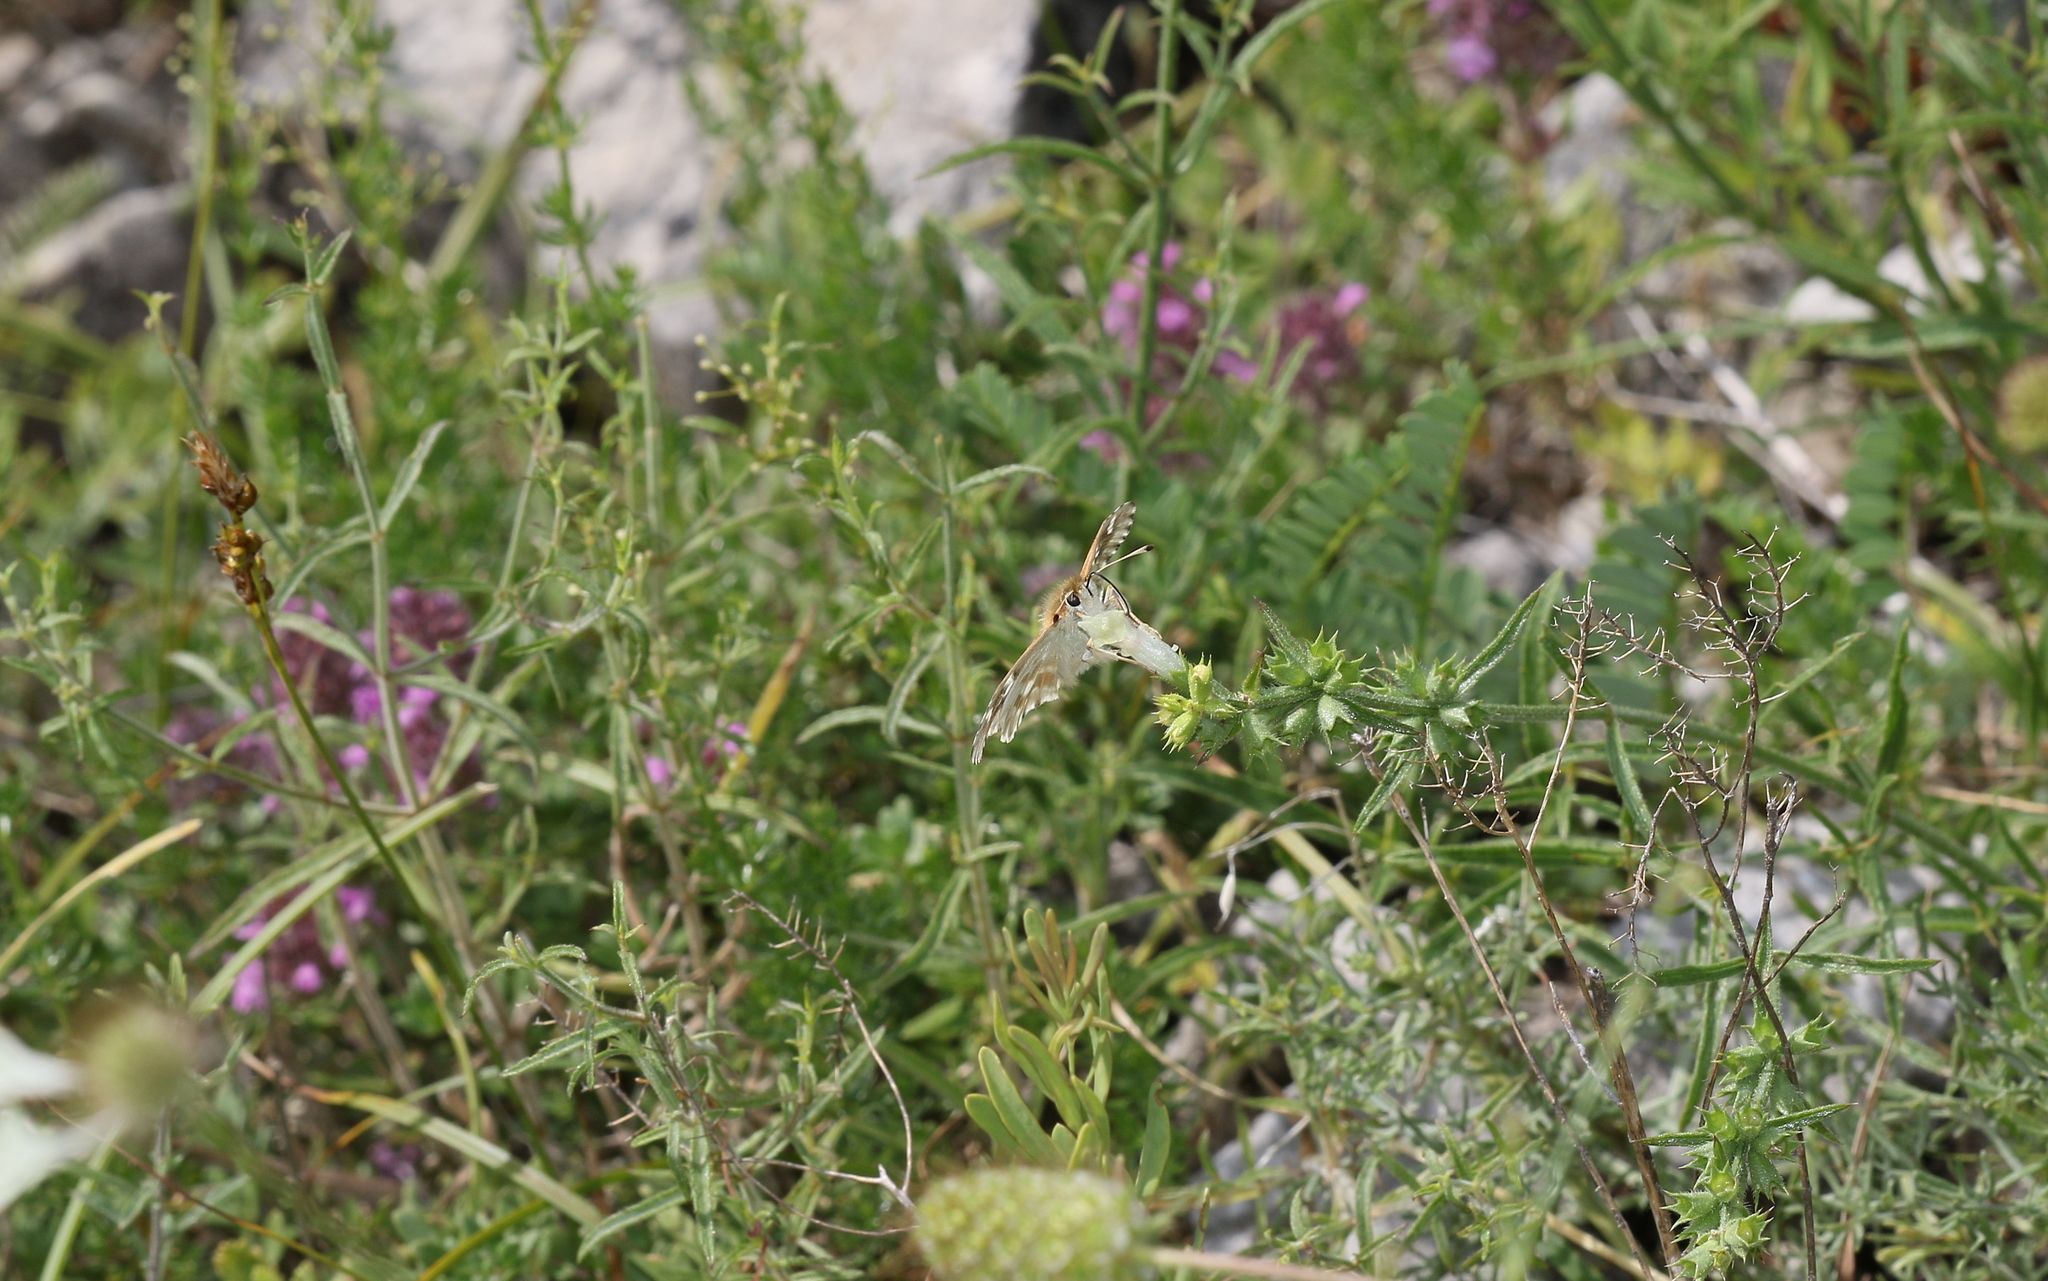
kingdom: Animalia
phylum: Arthropoda
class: Insecta
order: Lepidoptera
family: Hesperiidae
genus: Carcharodus
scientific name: Carcharodus lavatherae
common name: Marbled skipper
